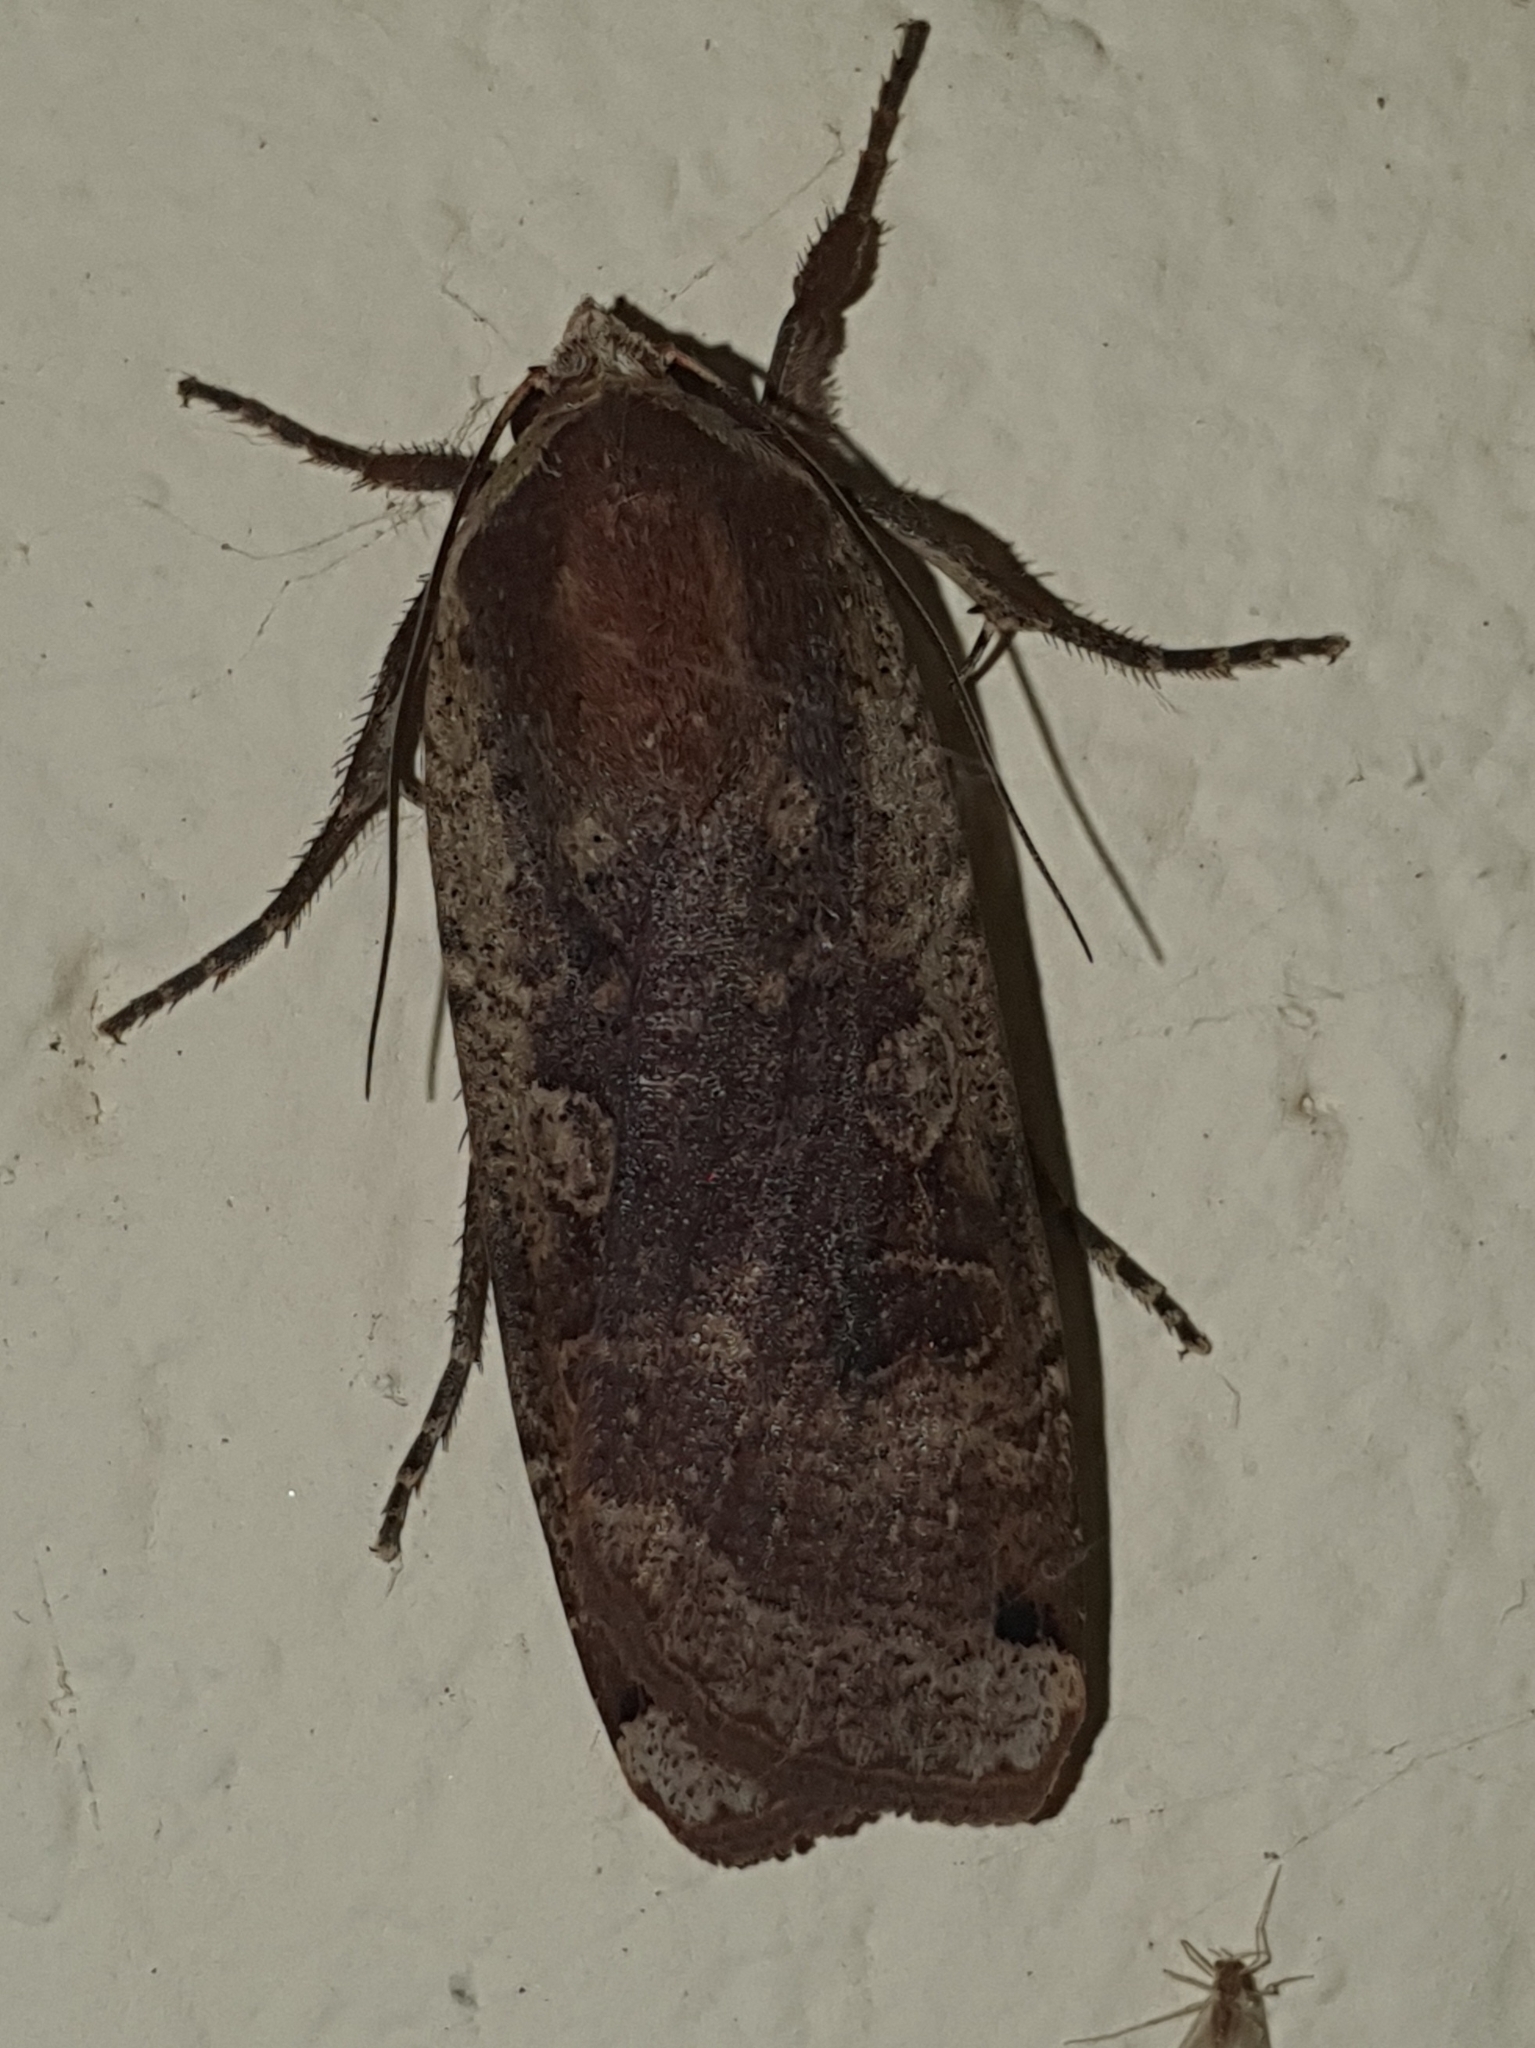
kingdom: Animalia
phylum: Arthropoda
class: Insecta
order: Lepidoptera
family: Noctuidae
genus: Noctua
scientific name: Noctua pronuba
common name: Large yellow underwing
